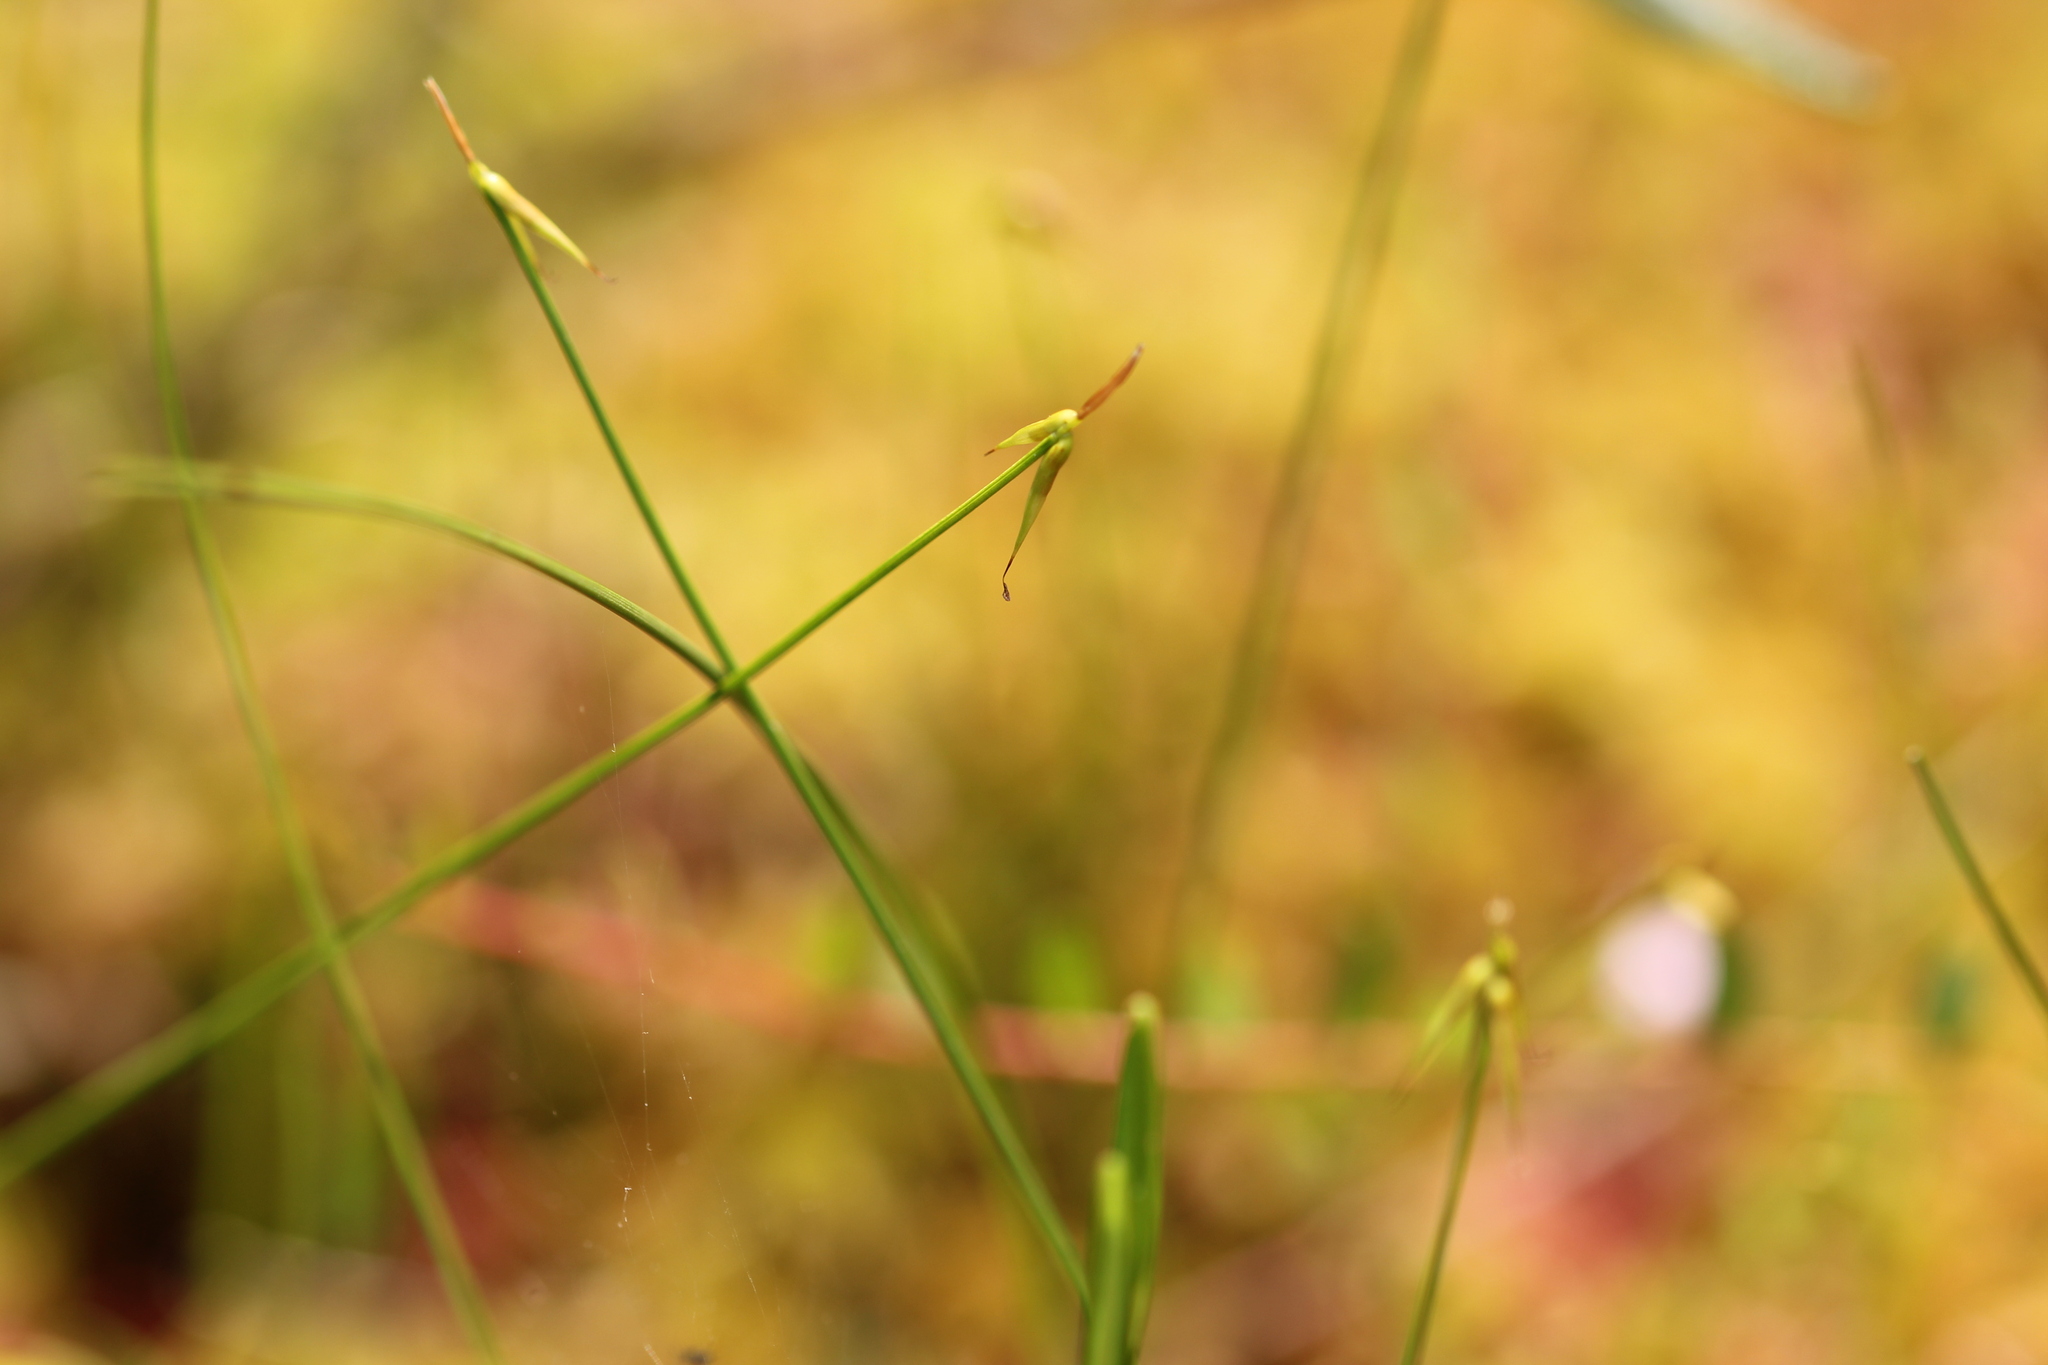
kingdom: Plantae
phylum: Tracheophyta
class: Liliopsida
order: Poales
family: Cyperaceae
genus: Carex
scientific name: Carex pauciflora
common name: Few-flowered sedge
